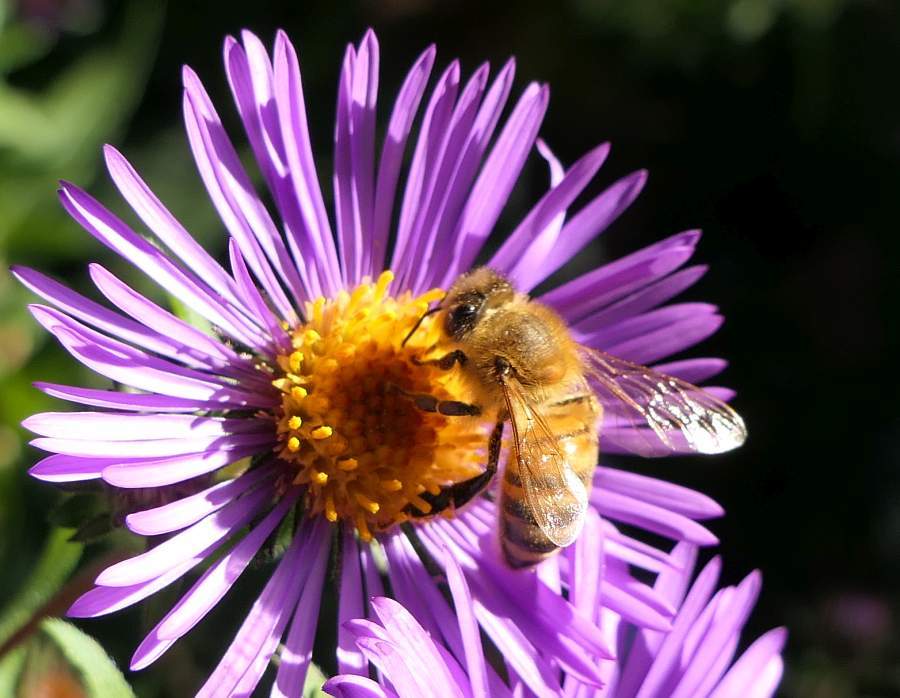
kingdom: Animalia
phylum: Arthropoda
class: Insecta
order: Hymenoptera
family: Apidae
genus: Apis
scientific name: Apis mellifera
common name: Honey bee
